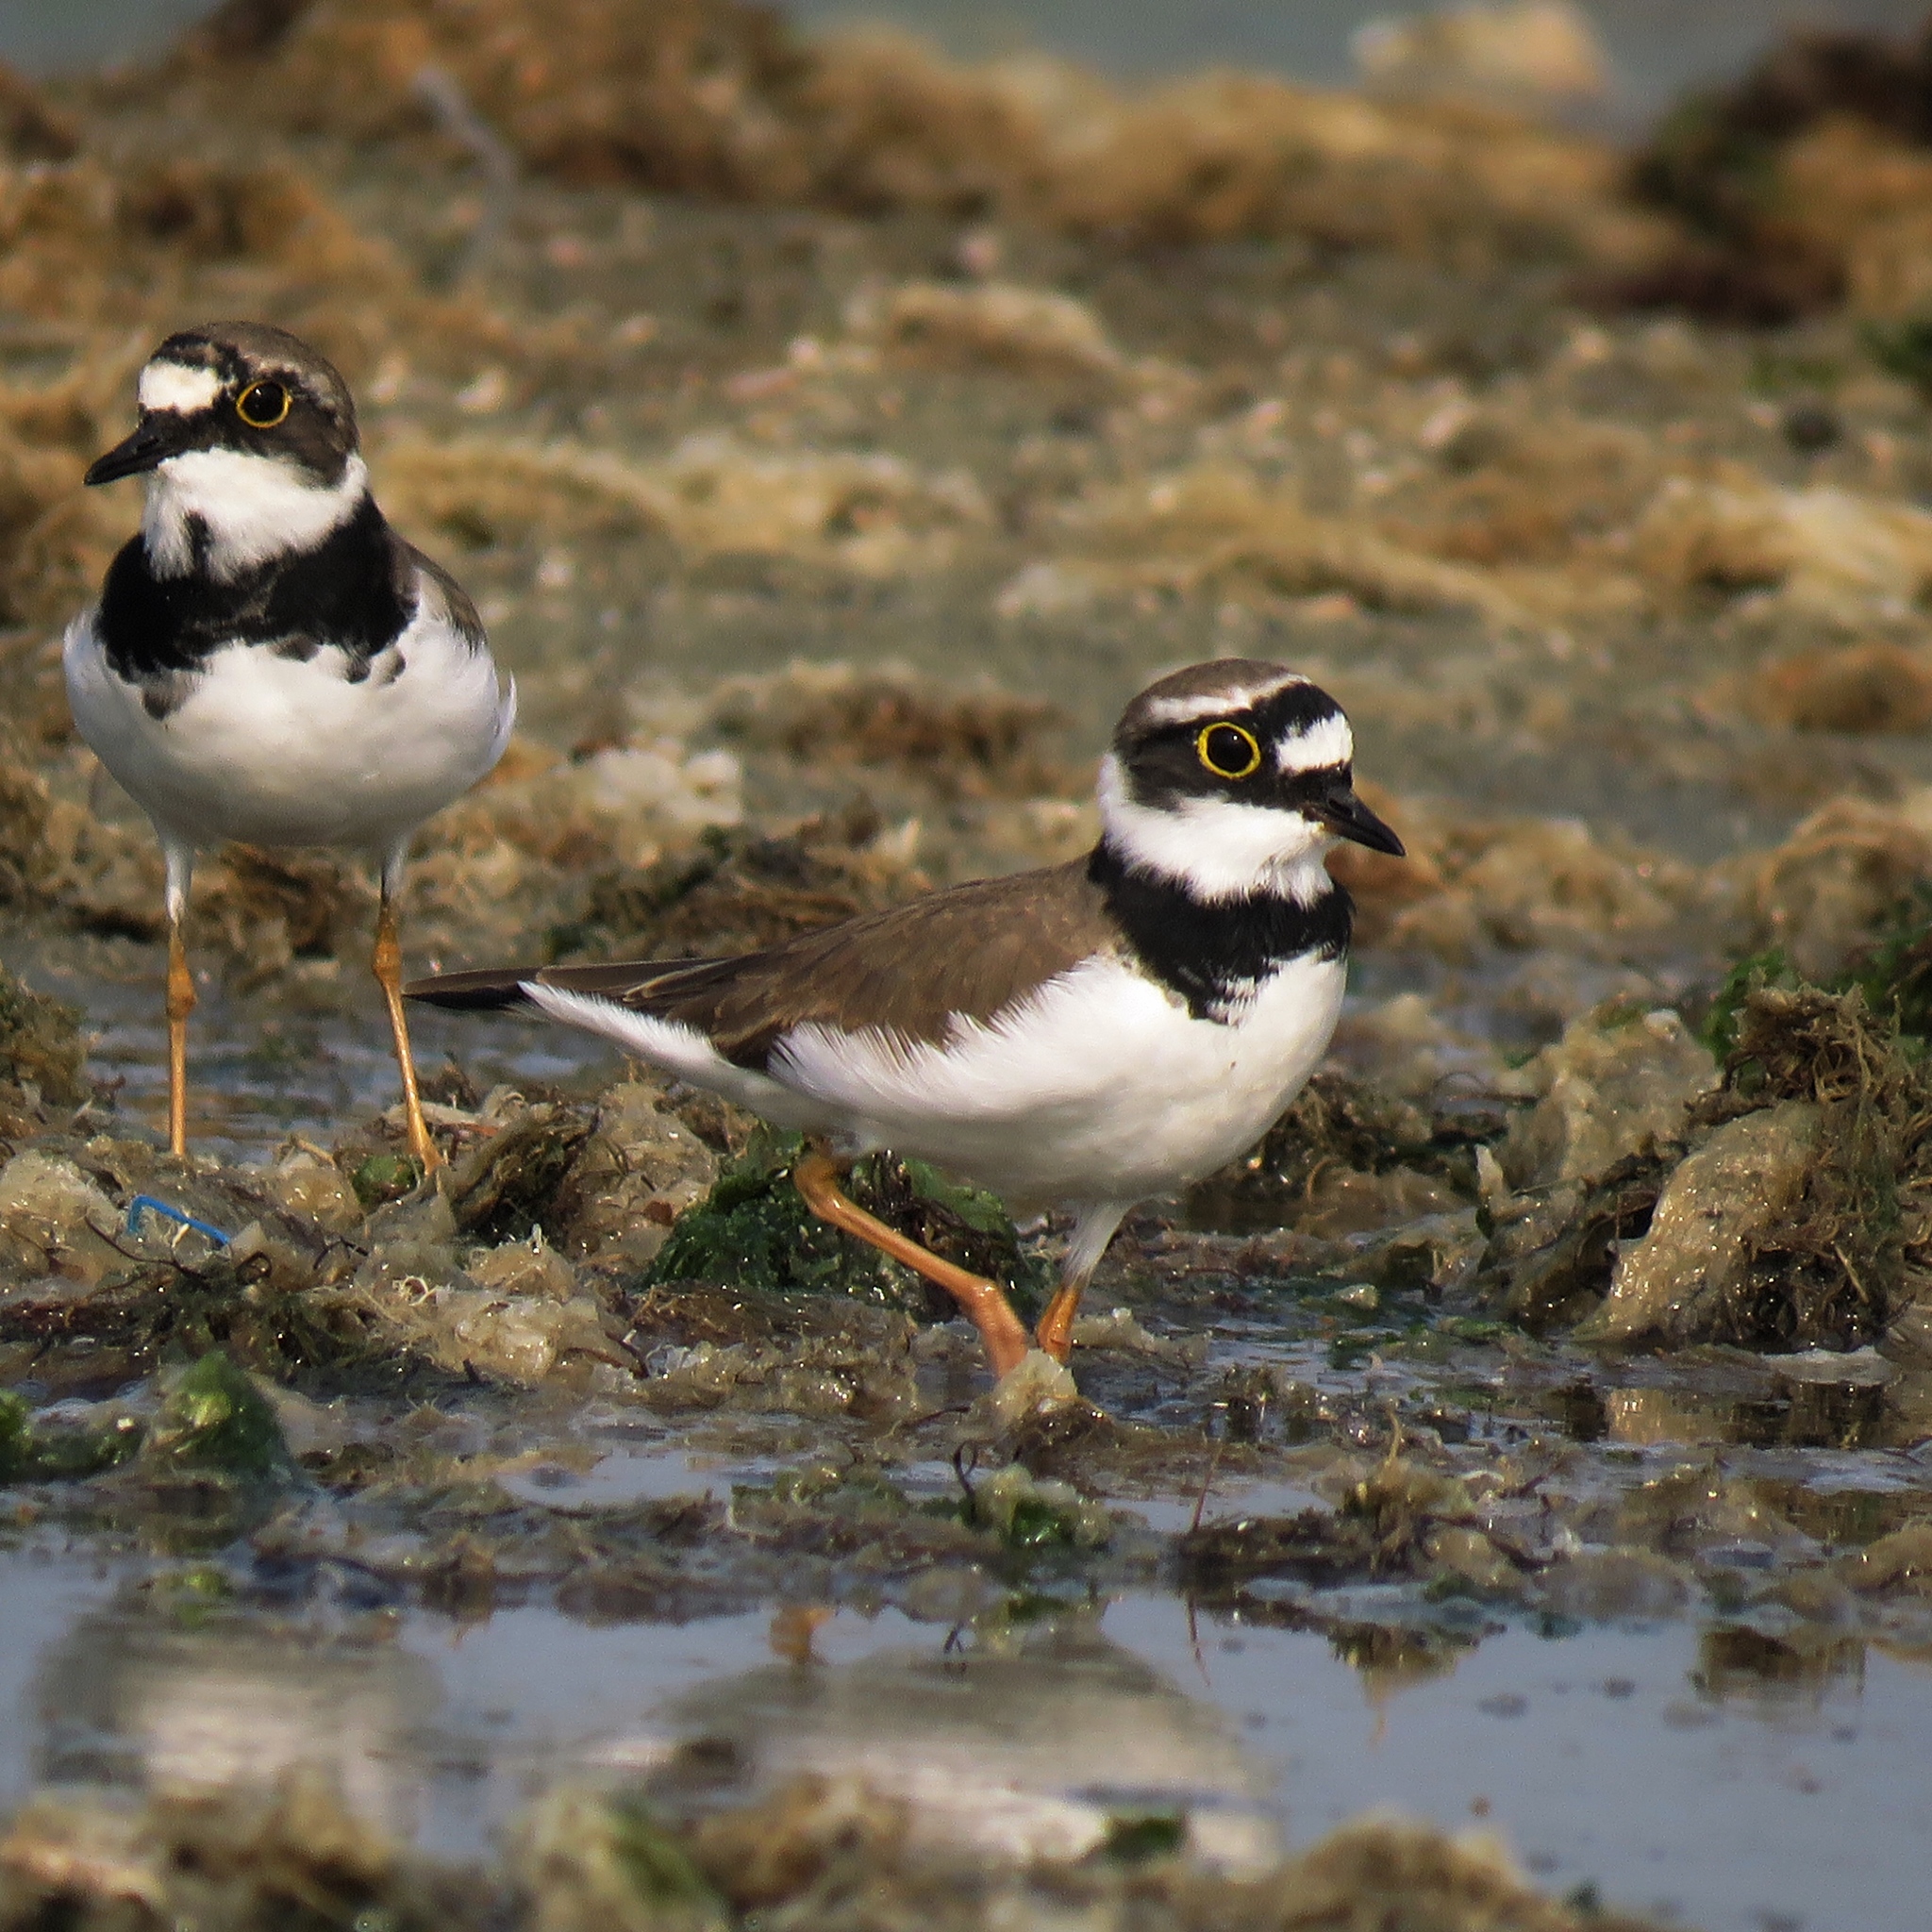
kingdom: Animalia
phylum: Chordata
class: Aves
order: Charadriiformes
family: Charadriidae
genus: Charadrius
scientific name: Charadrius dubius
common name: Little ringed plover
